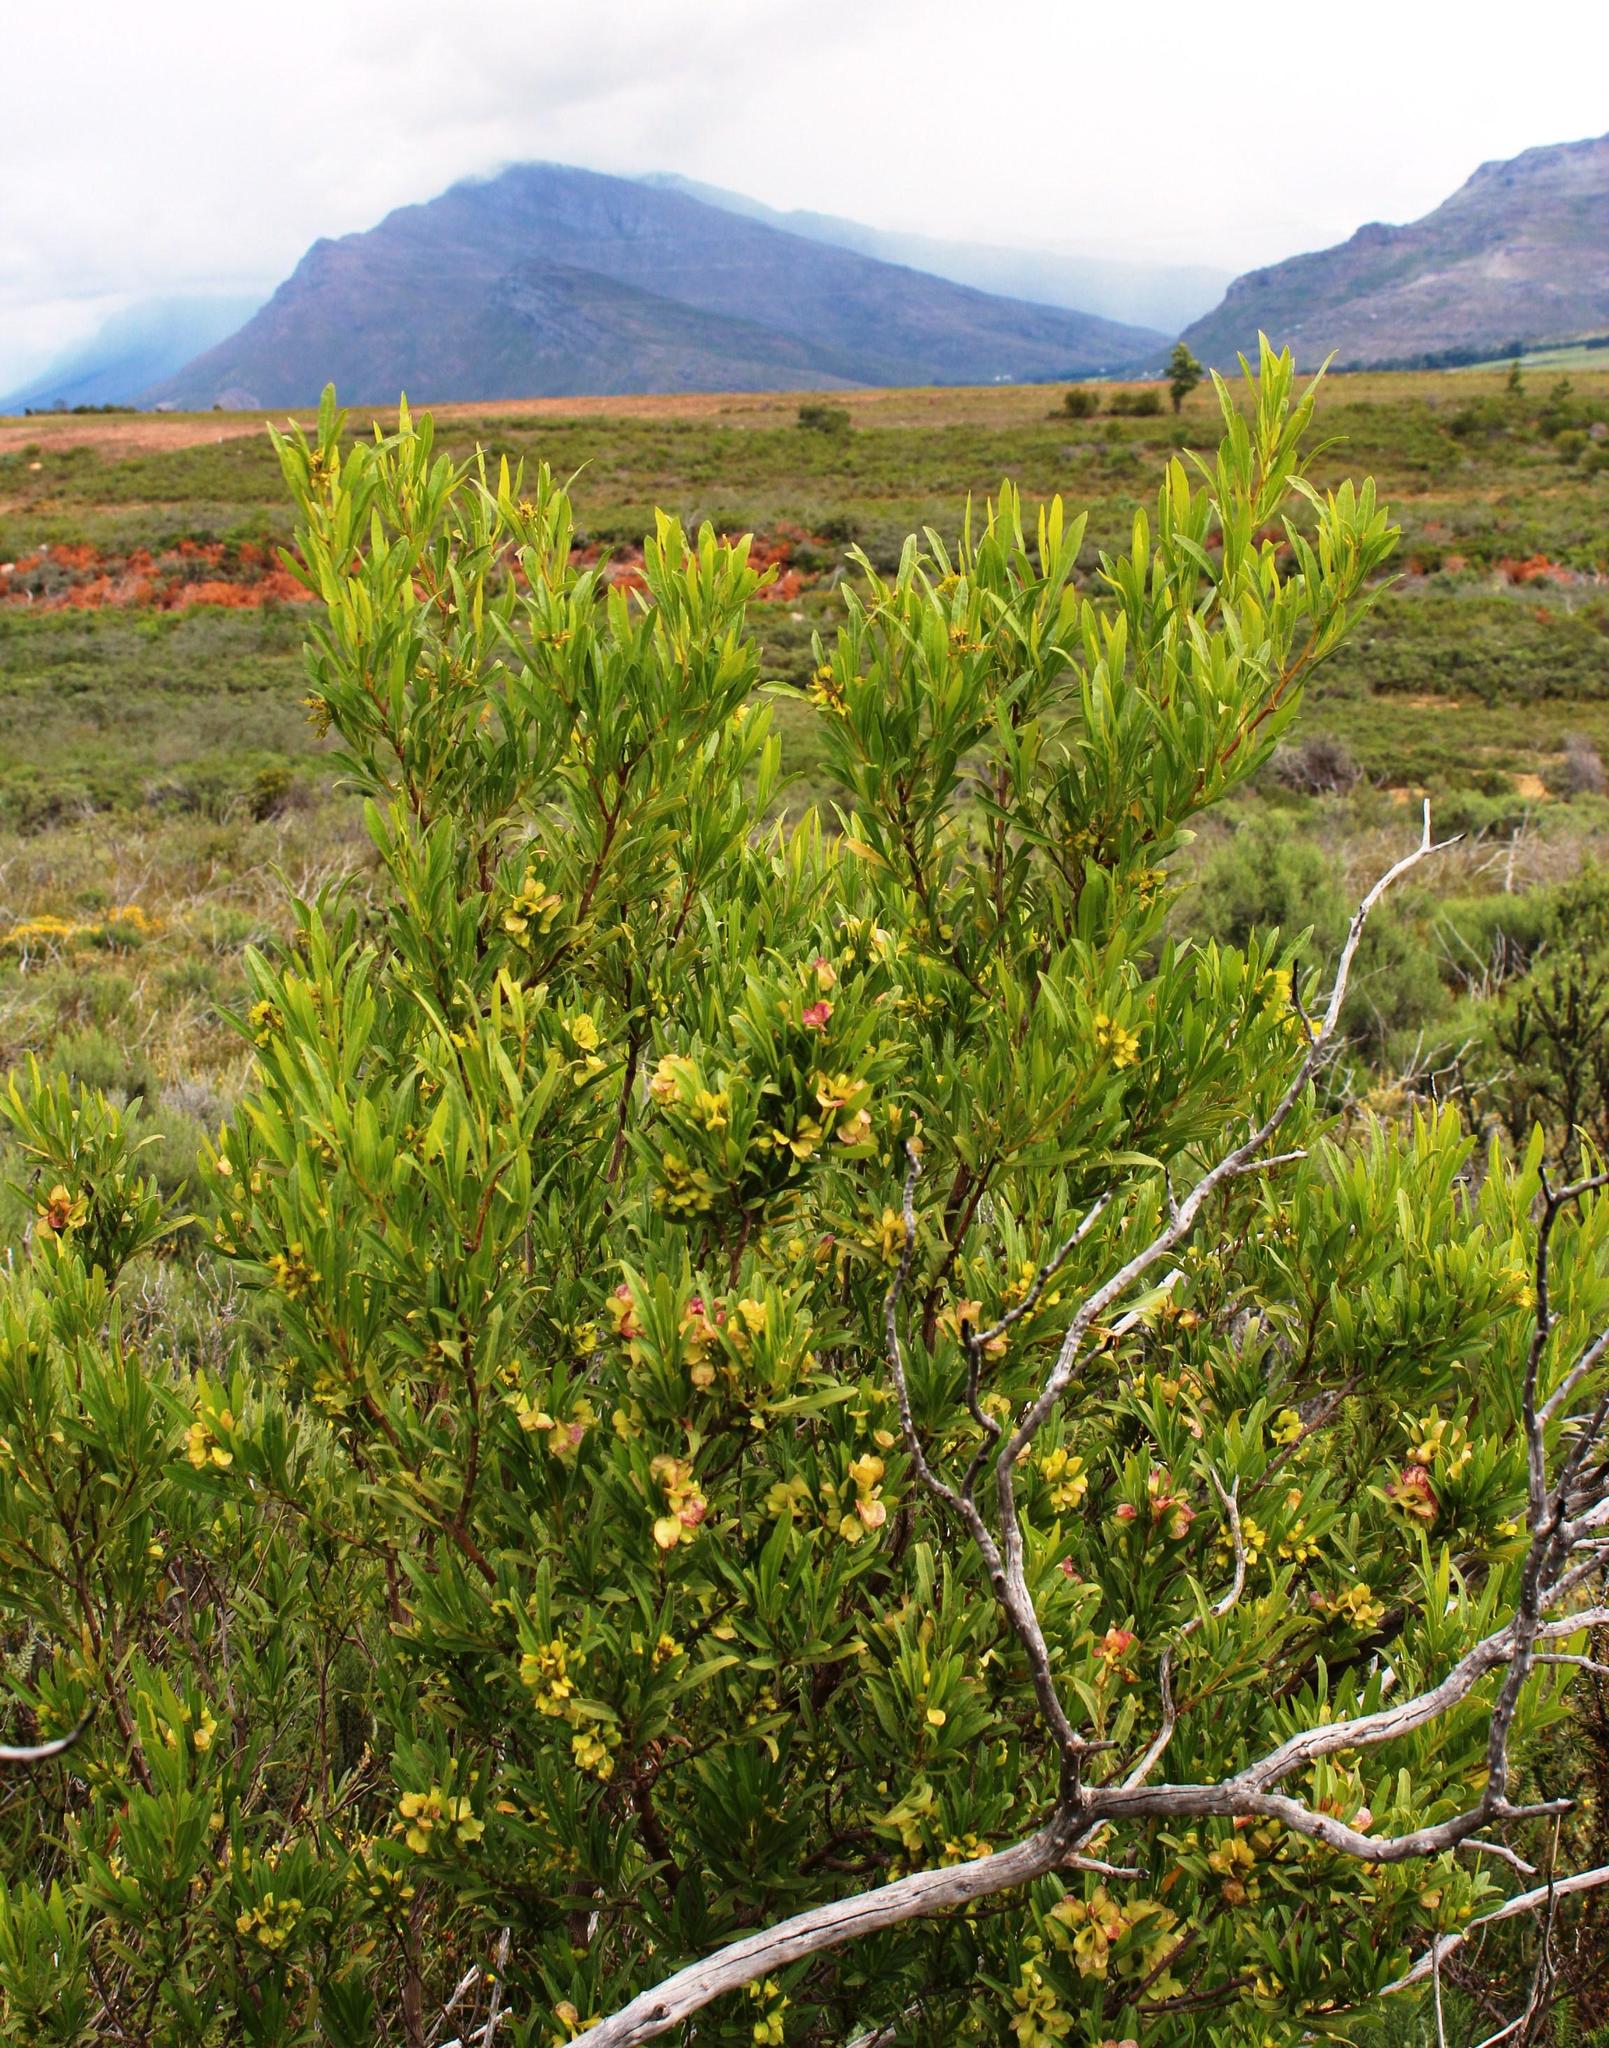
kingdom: Plantae
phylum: Tracheophyta
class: Magnoliopsida
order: Sapindales
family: Sapindaceae
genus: Dodonaea
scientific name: Dodonaea viscosa
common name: Hopbush
